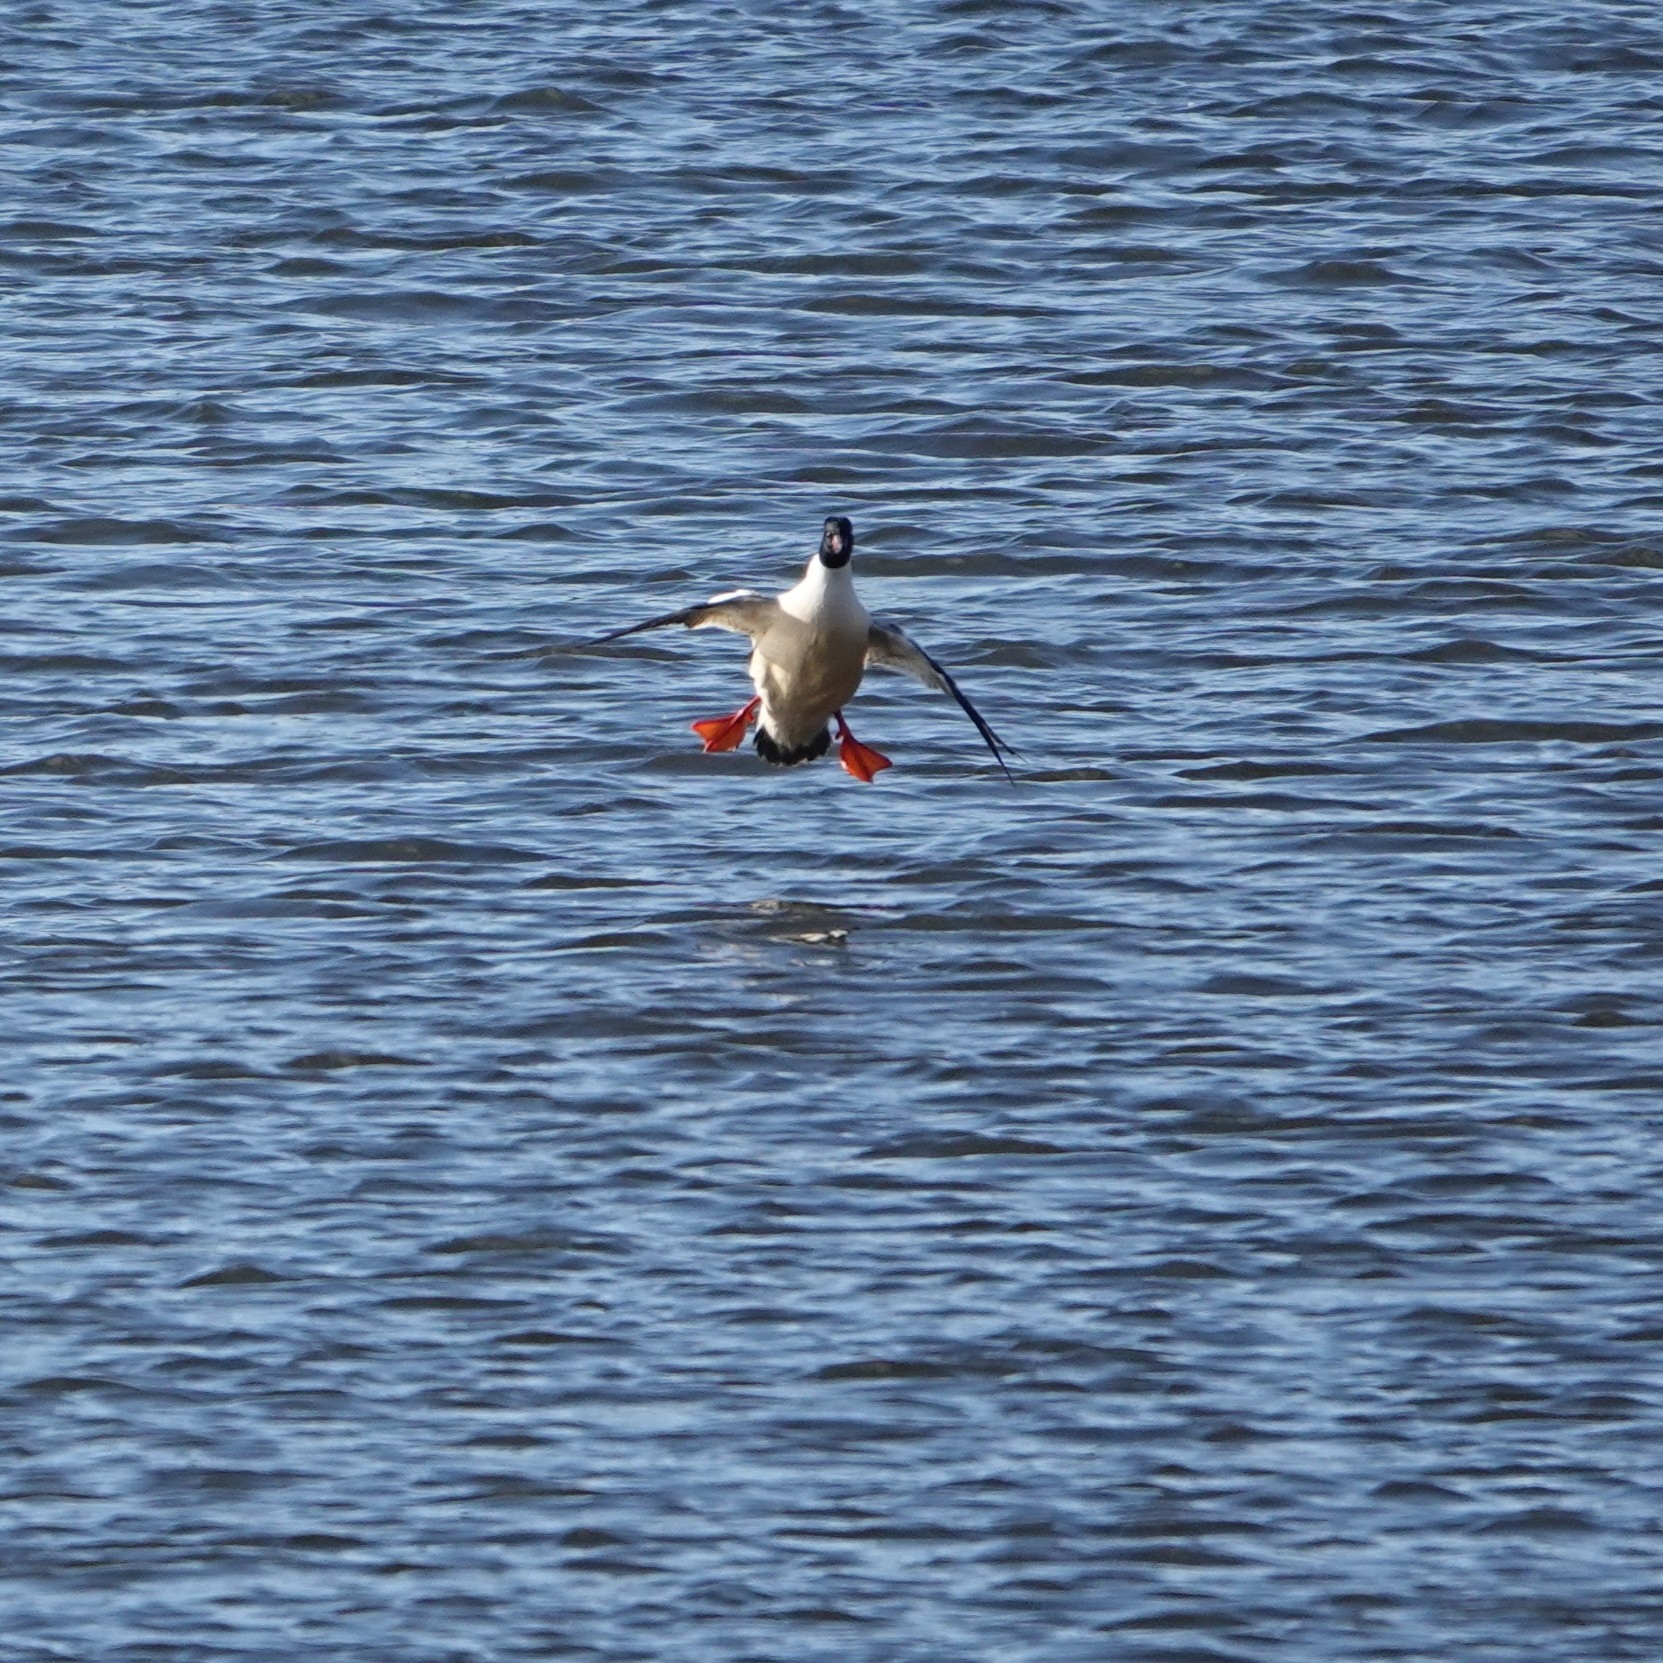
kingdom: Animalia
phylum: Chordata
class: Aves
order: Anseriformes
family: Anatidae
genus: Mergus
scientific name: Mergus merganser
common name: Common merganser
